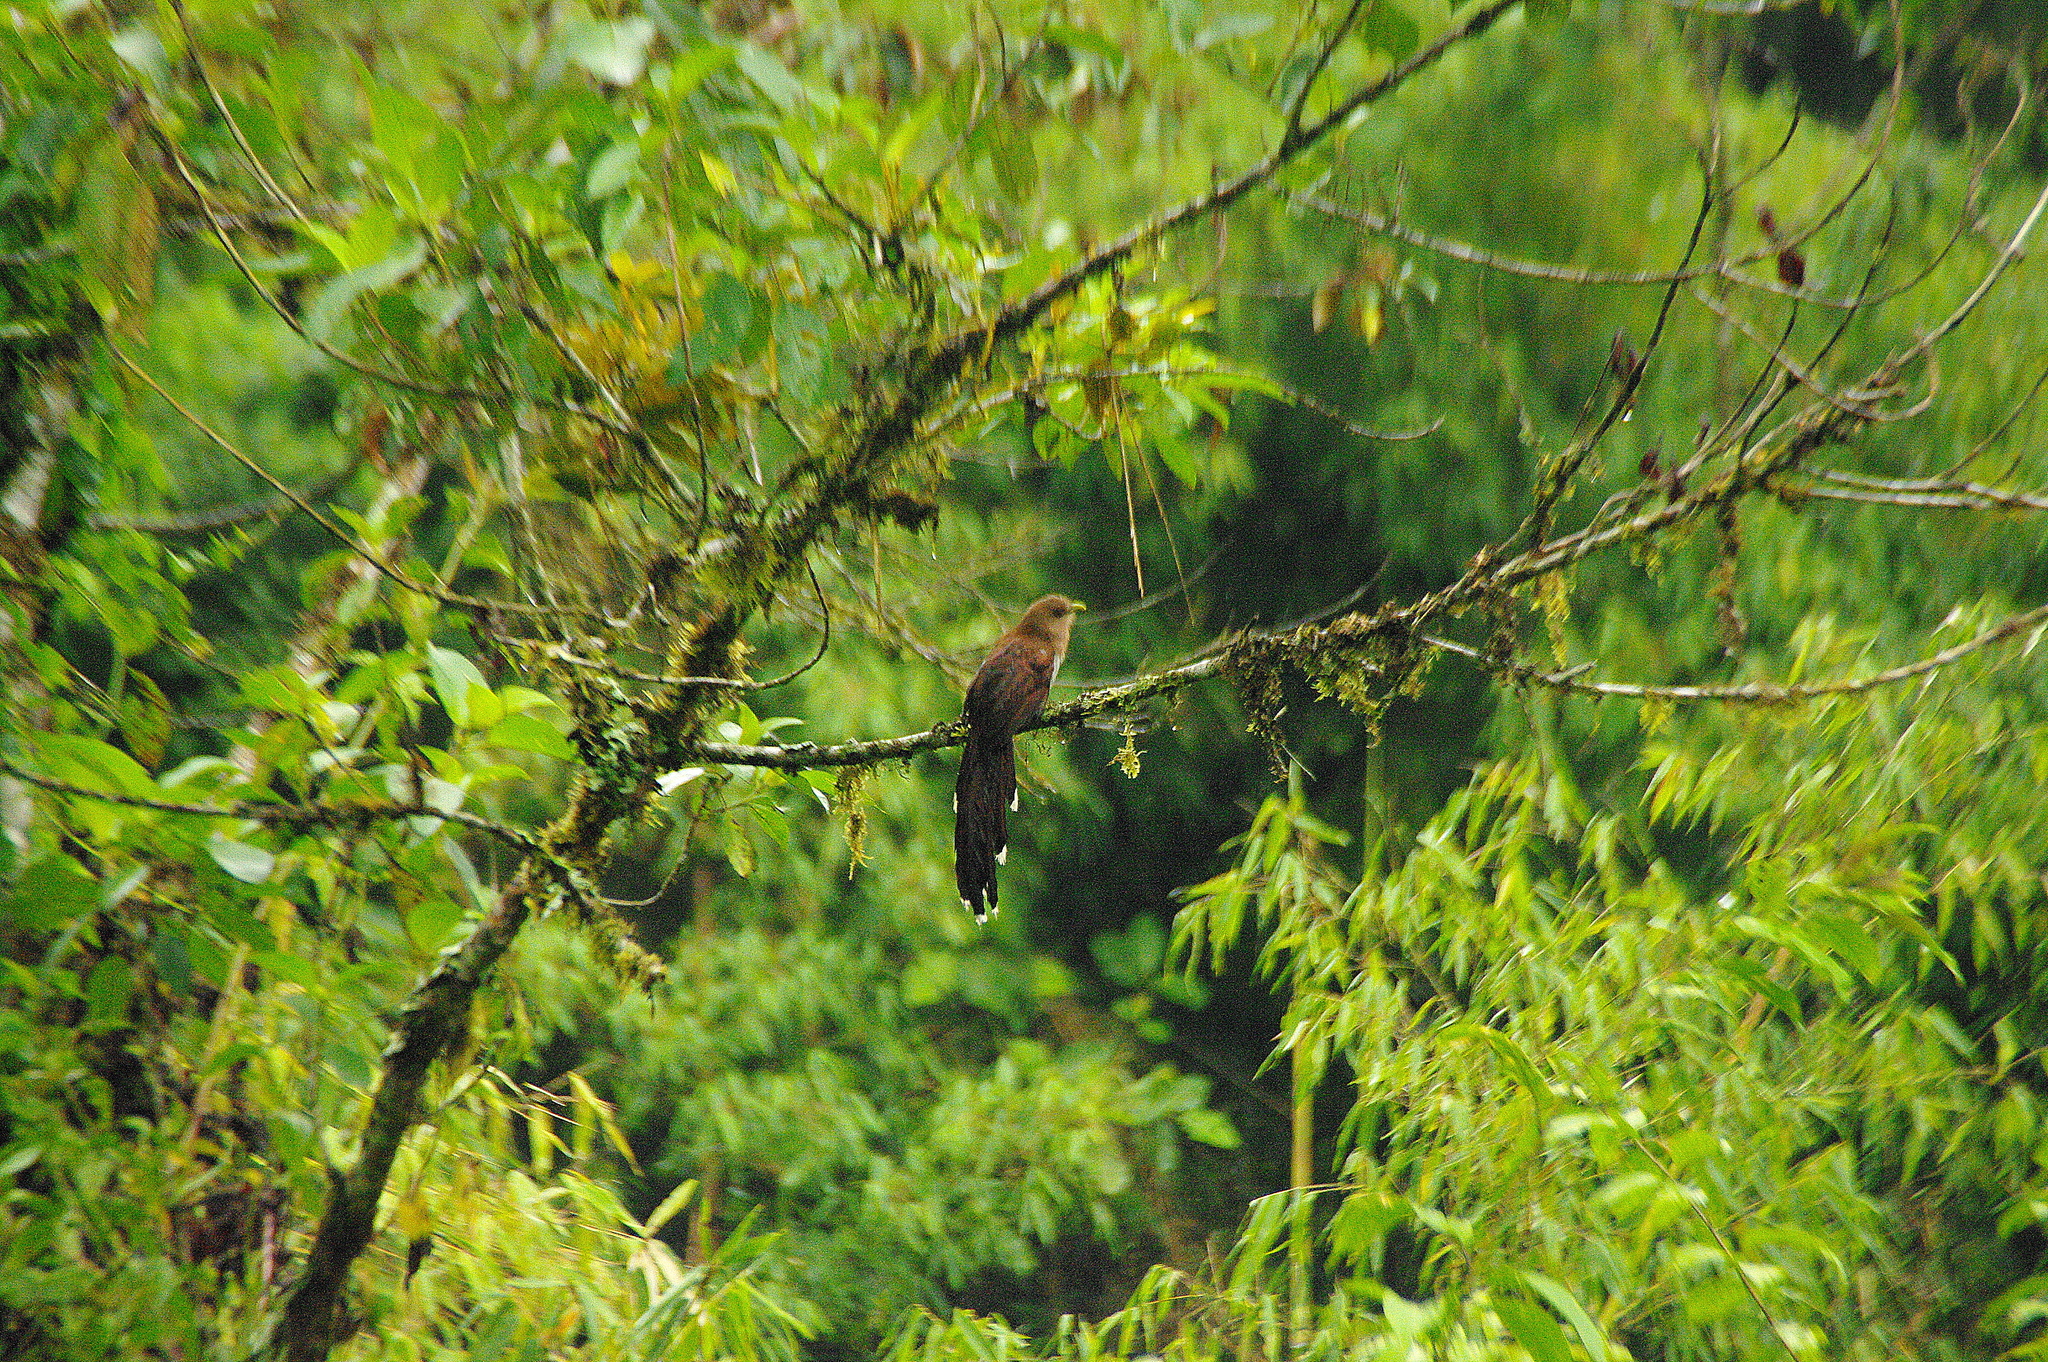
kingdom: Animalia
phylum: Chordata
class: Aves
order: Cuculiformes
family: Cuculidae
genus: Piaya
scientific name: Piaya cayana
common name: Squirrel cuckoo
